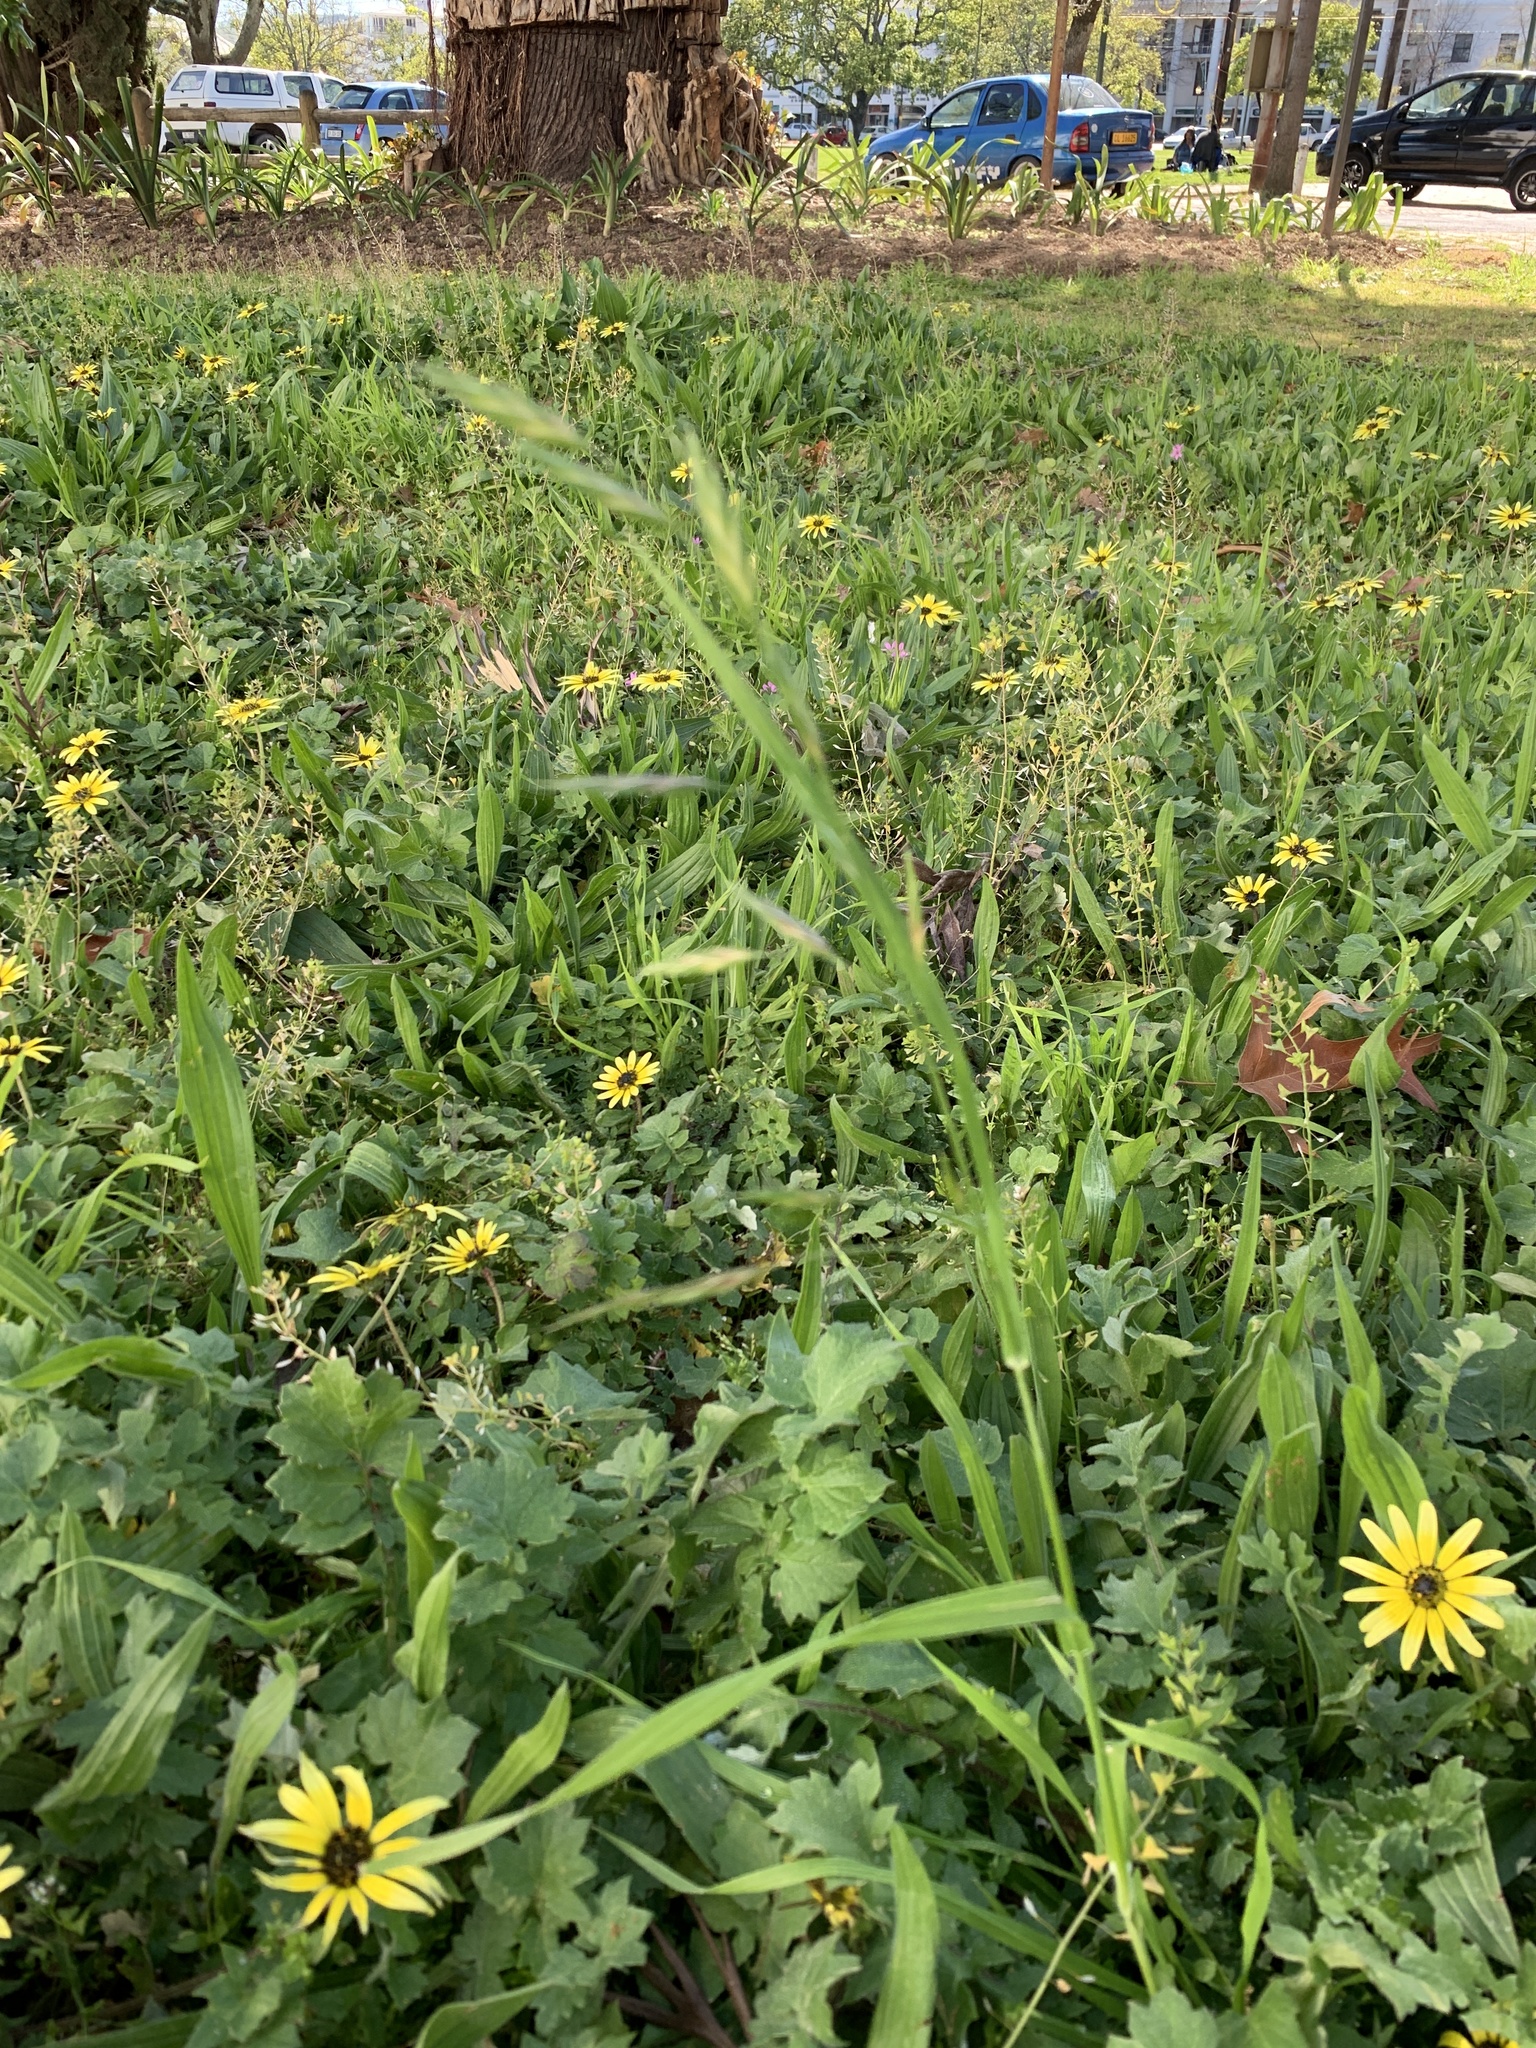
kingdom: Plantae
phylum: Tracheophyta
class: Liliopsida
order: Poales
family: Poaceae
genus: Bromus
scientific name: Bromus catharticus
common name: Rescuegrass
